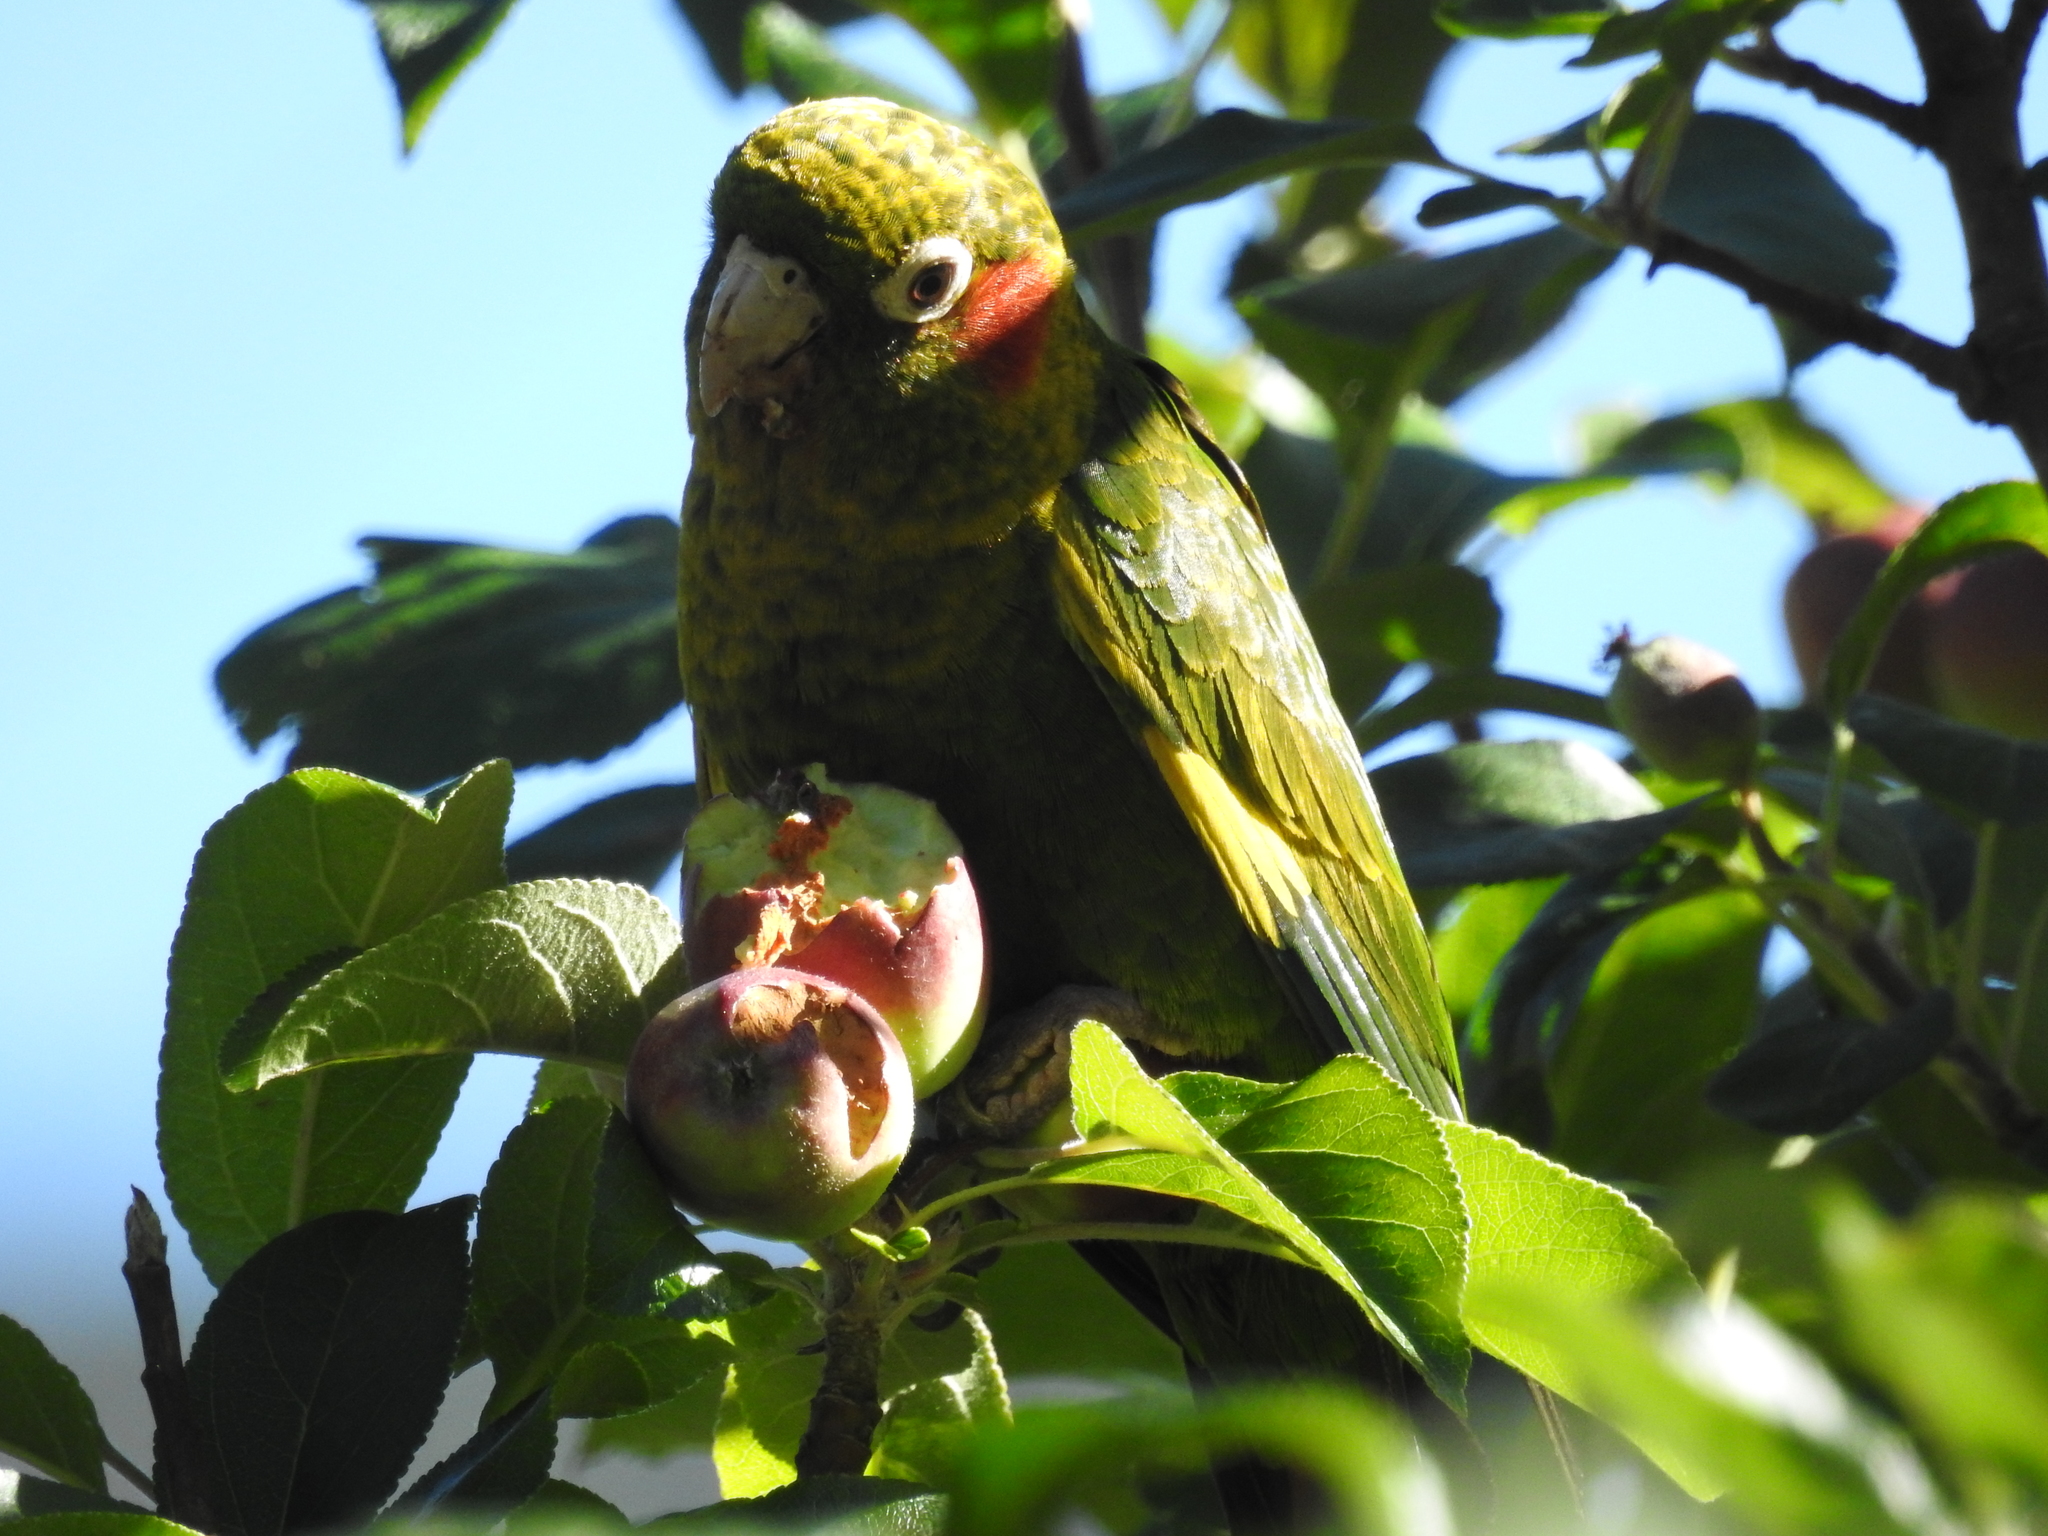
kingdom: Animalia
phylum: Chordata
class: Aves
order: Psittaciformes
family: Psittacidae
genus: Pyrrhura
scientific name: Pyrrhura hoffmanni
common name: Sulphur-winged parakeet
